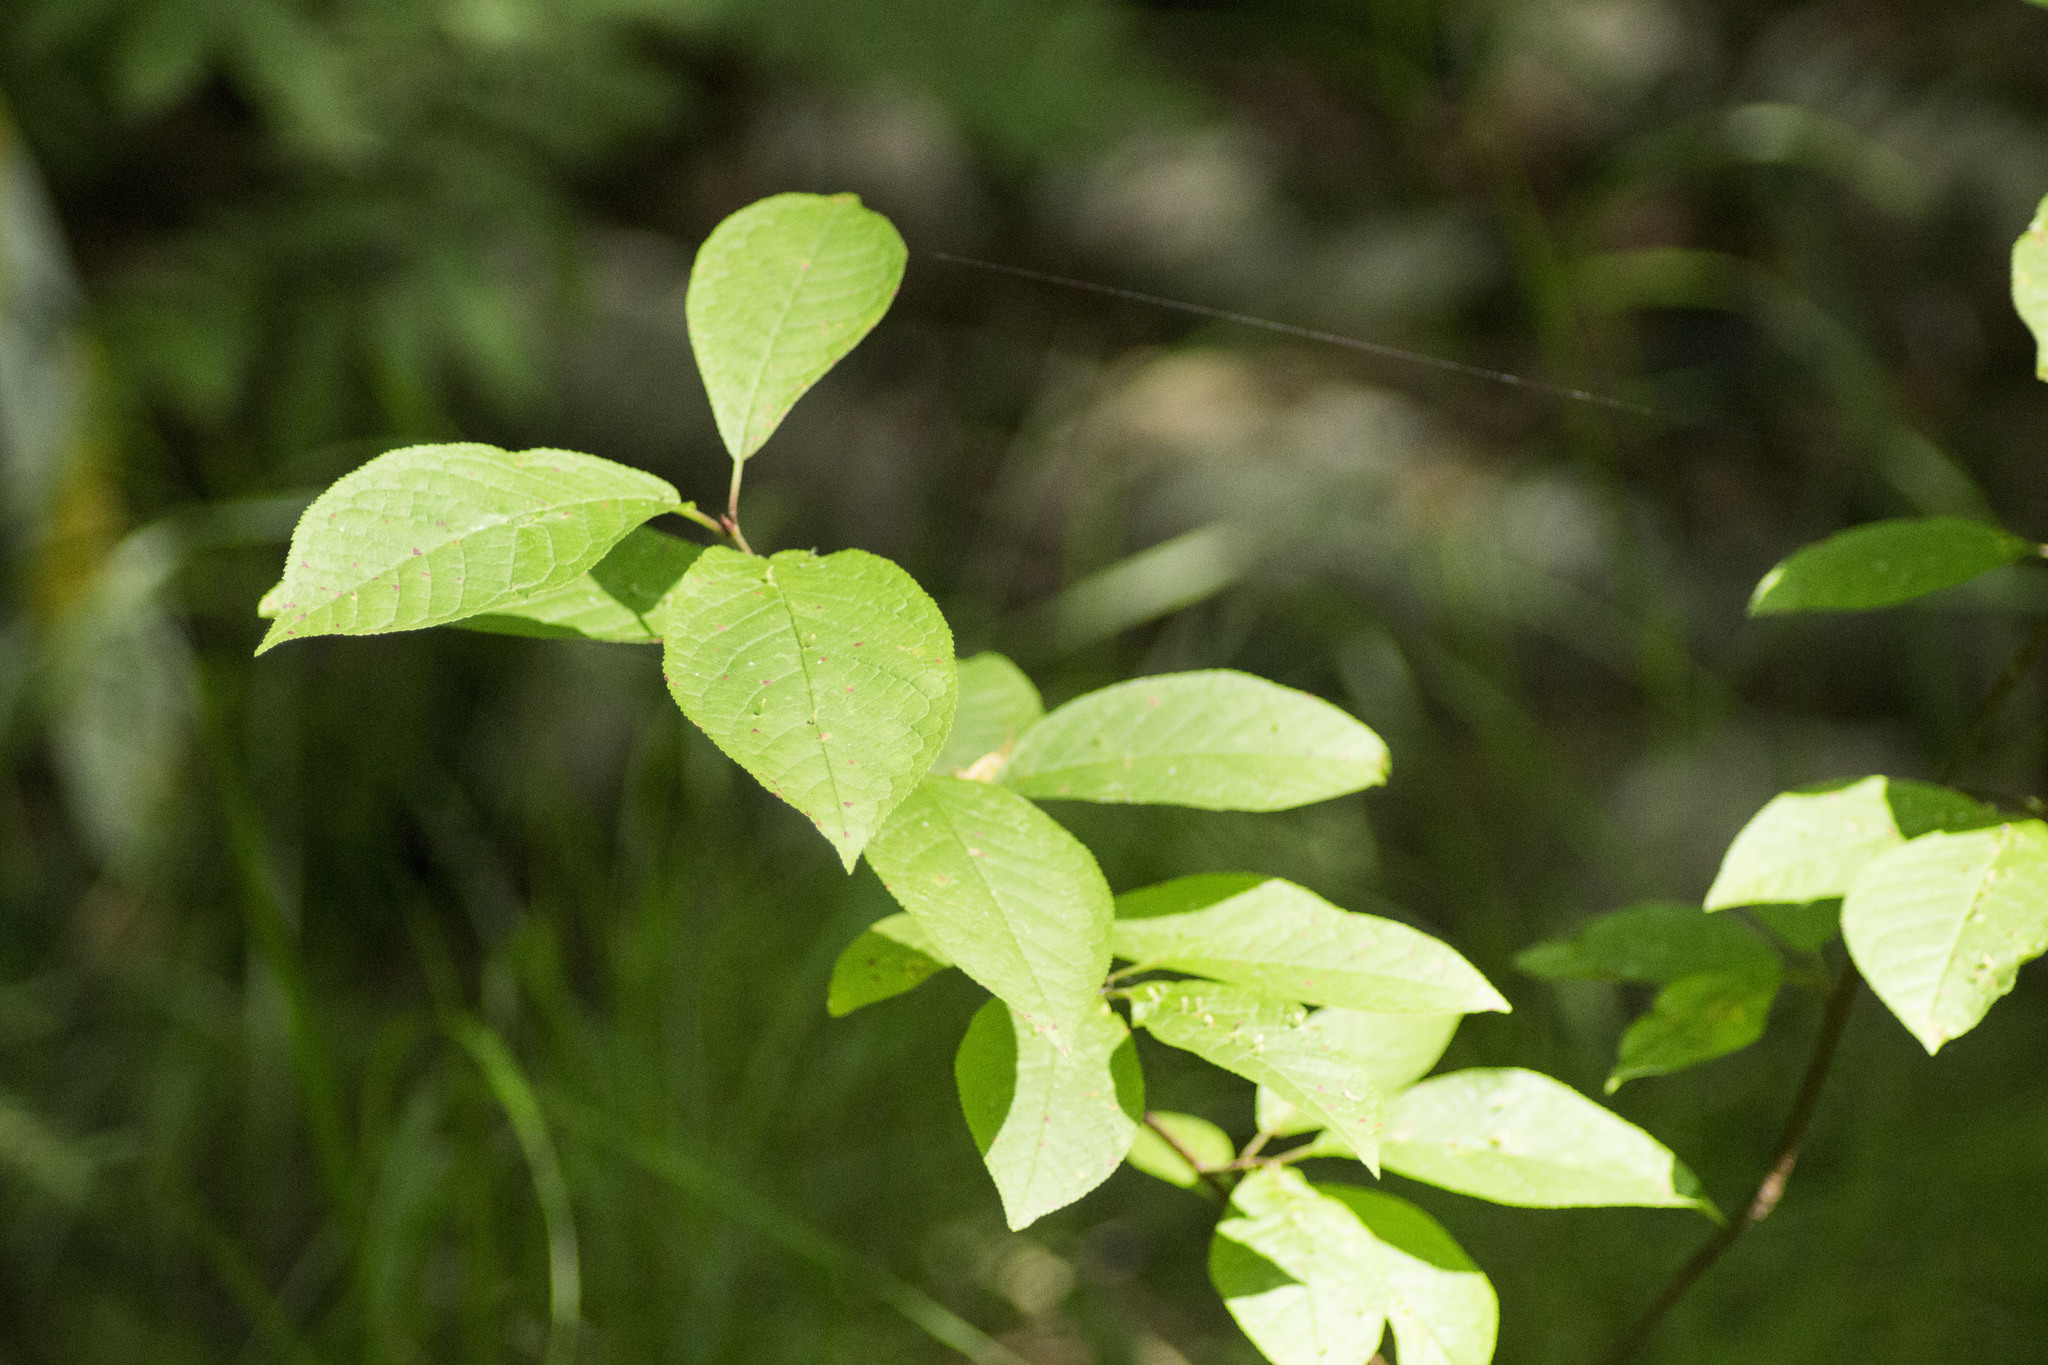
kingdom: Plantae
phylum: Tracheophyta
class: Magnoliopsida
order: Rosales
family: Rosaceae
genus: Prunus
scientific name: Prunus padus
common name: Bird cherry
